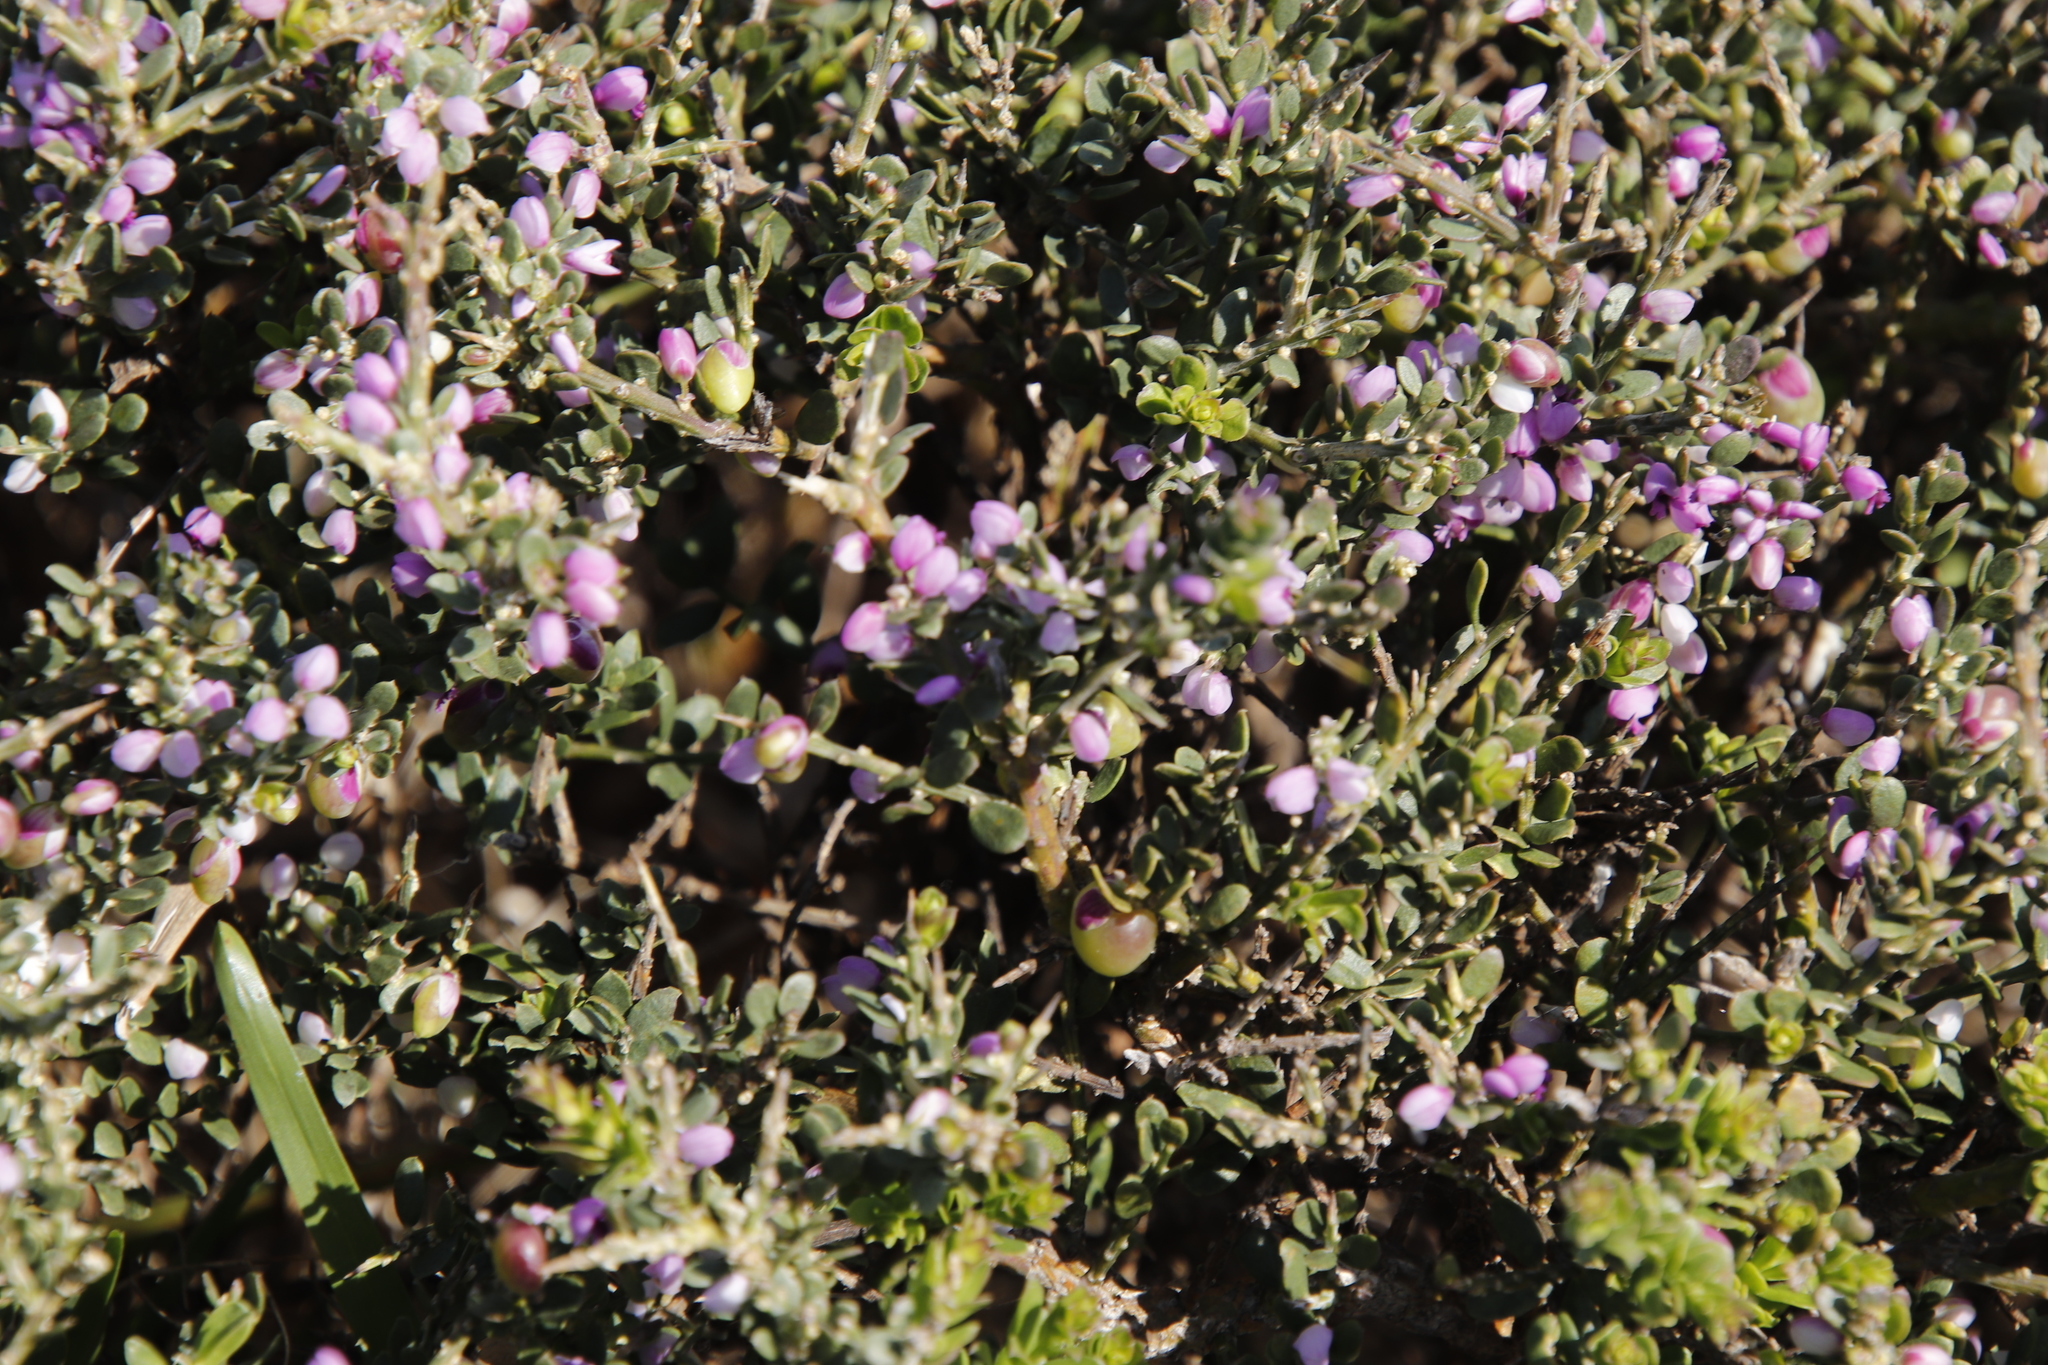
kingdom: Plantae
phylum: Tracheophyta
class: Magnoliopsida
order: Fabales
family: Polygalaceae
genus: Muraltia
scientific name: Muraltia spinosa
